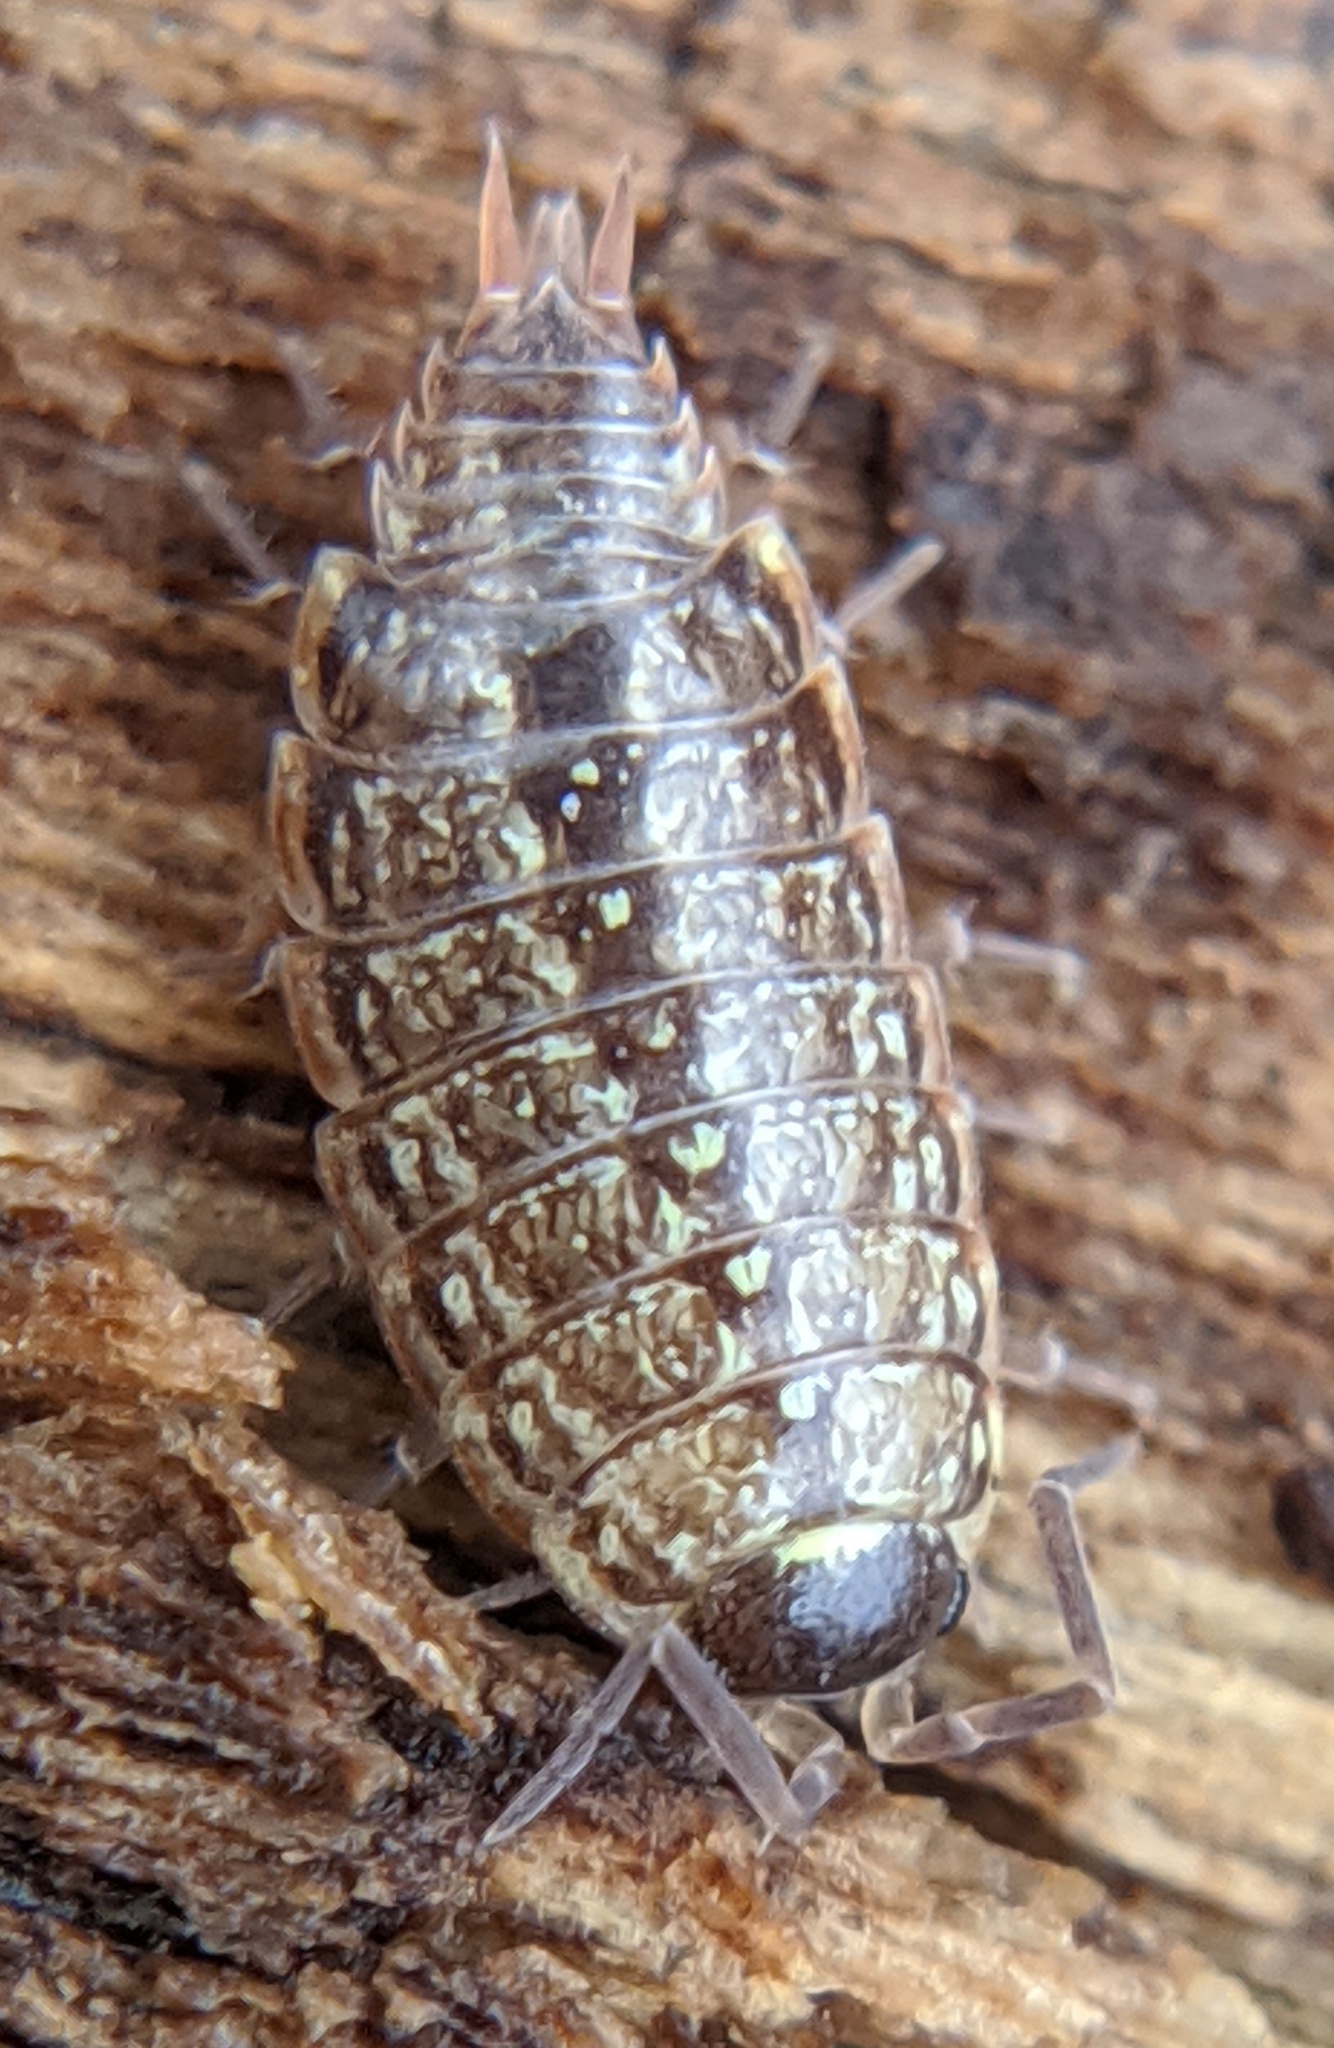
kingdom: Animalia
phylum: Arthropoda
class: Malacostraca
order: Isopoda
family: Philosciidae
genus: Philoscia
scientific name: Philoscia muscorum
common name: Common striped woodlouse
